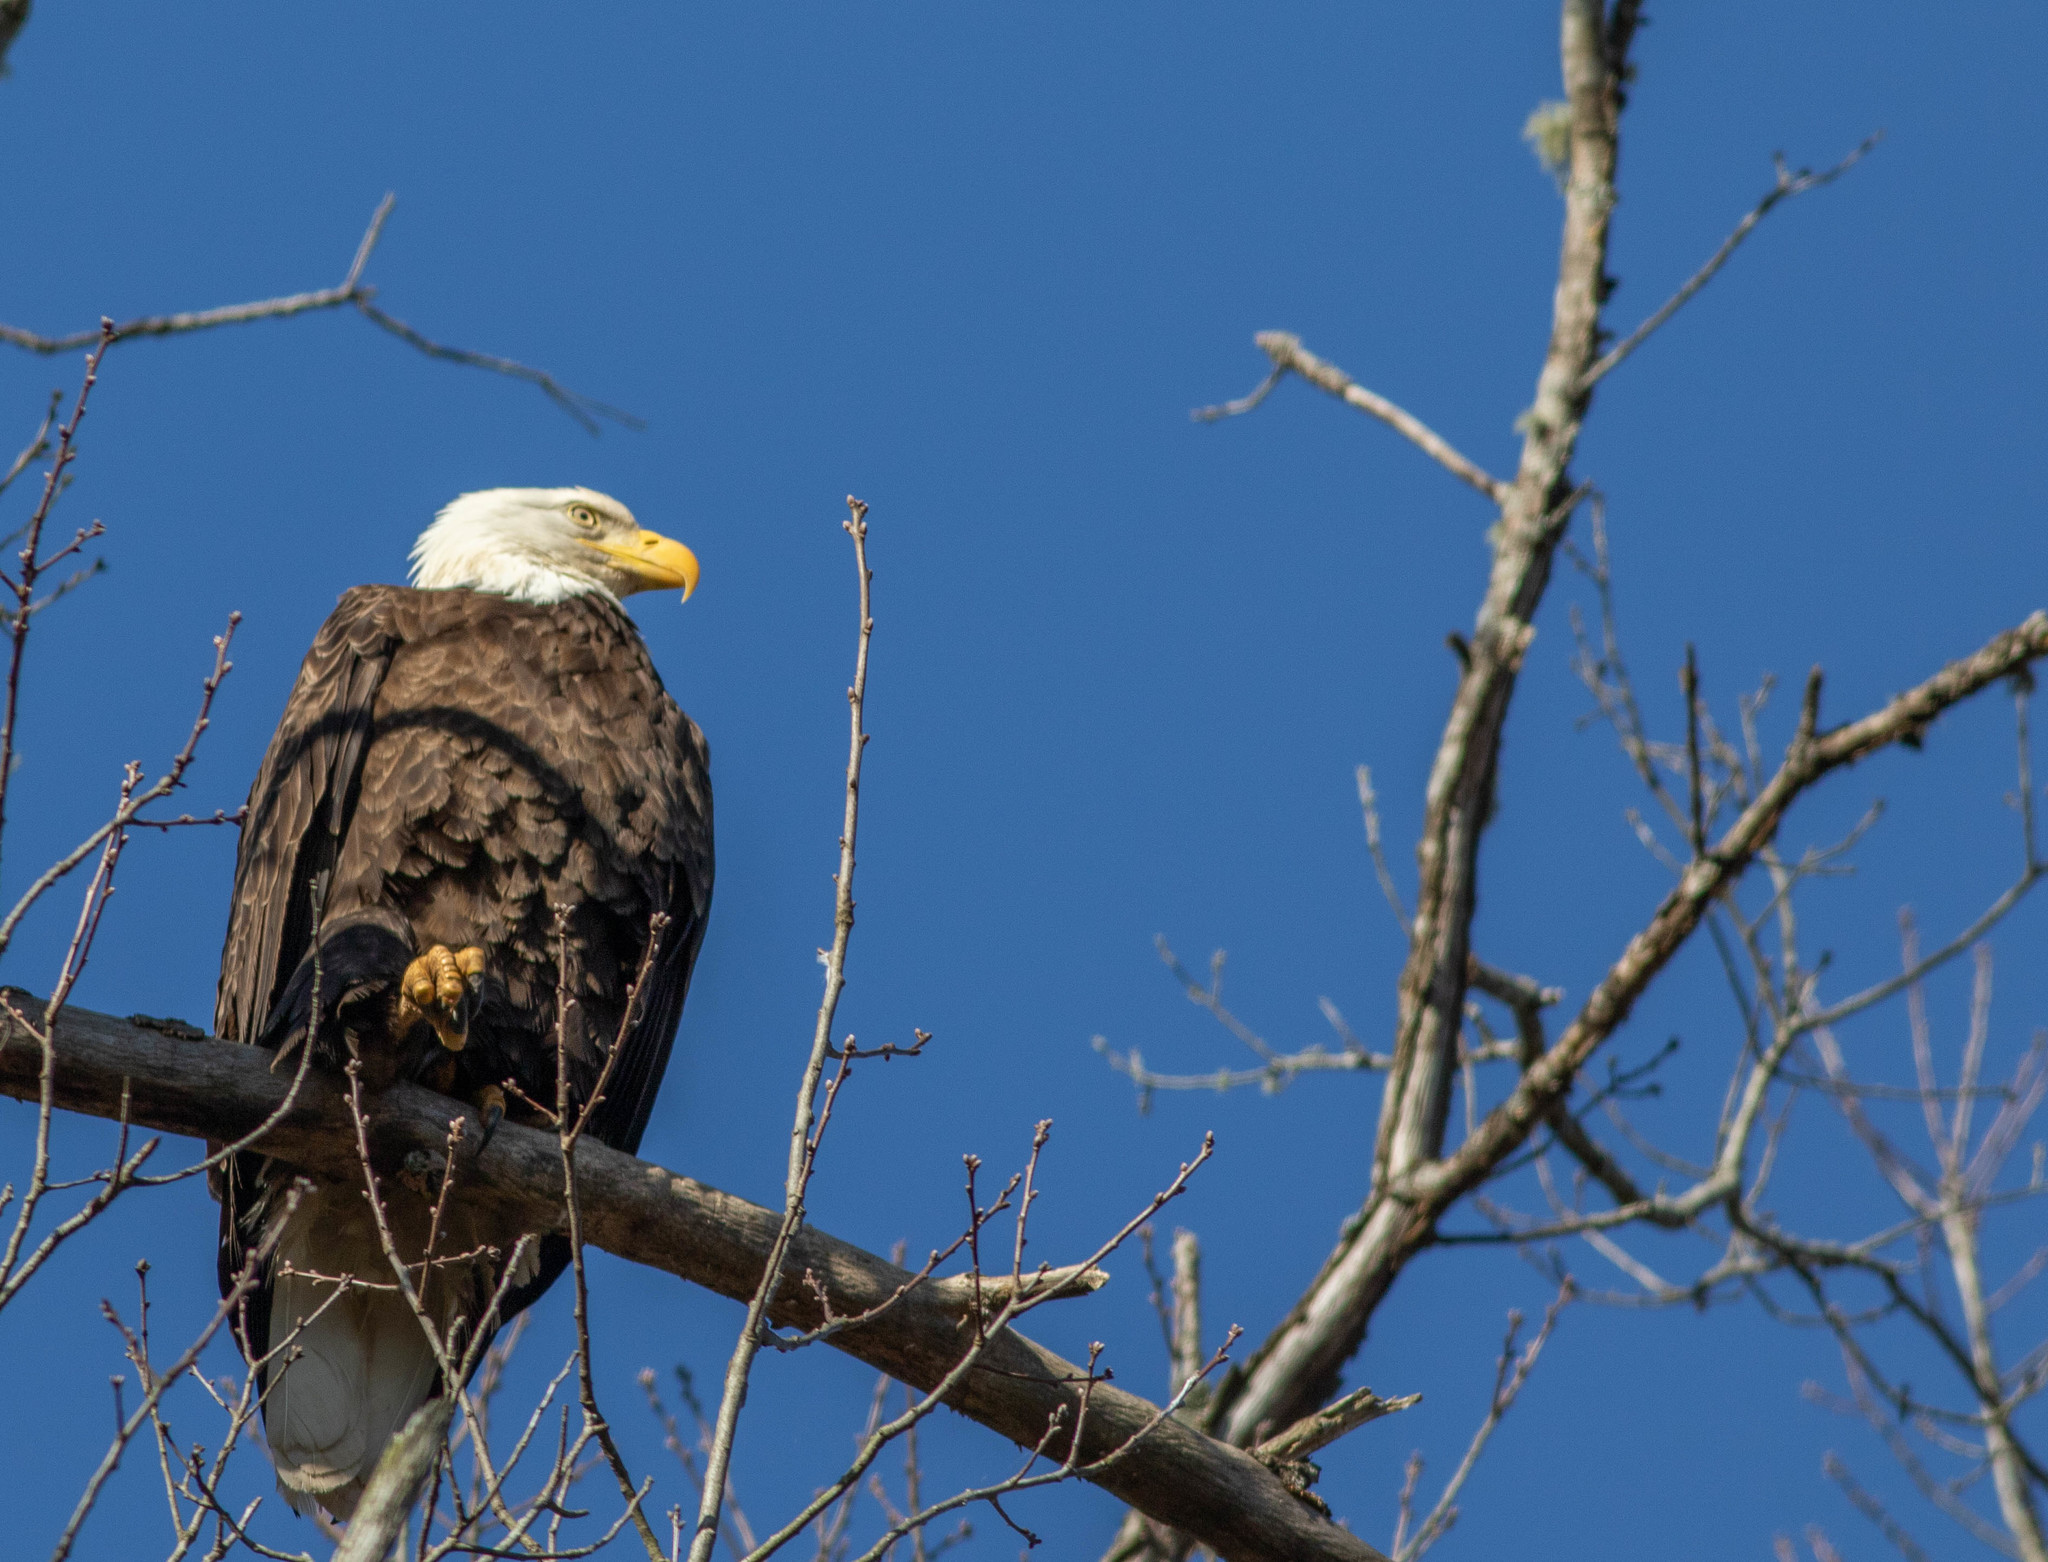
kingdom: Animalia
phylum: Chordata
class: Aves
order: Accipitriformes
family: Accipitridae
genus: Haliaeetus
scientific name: Haliaeetus leucocephalus
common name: Bald eagle
